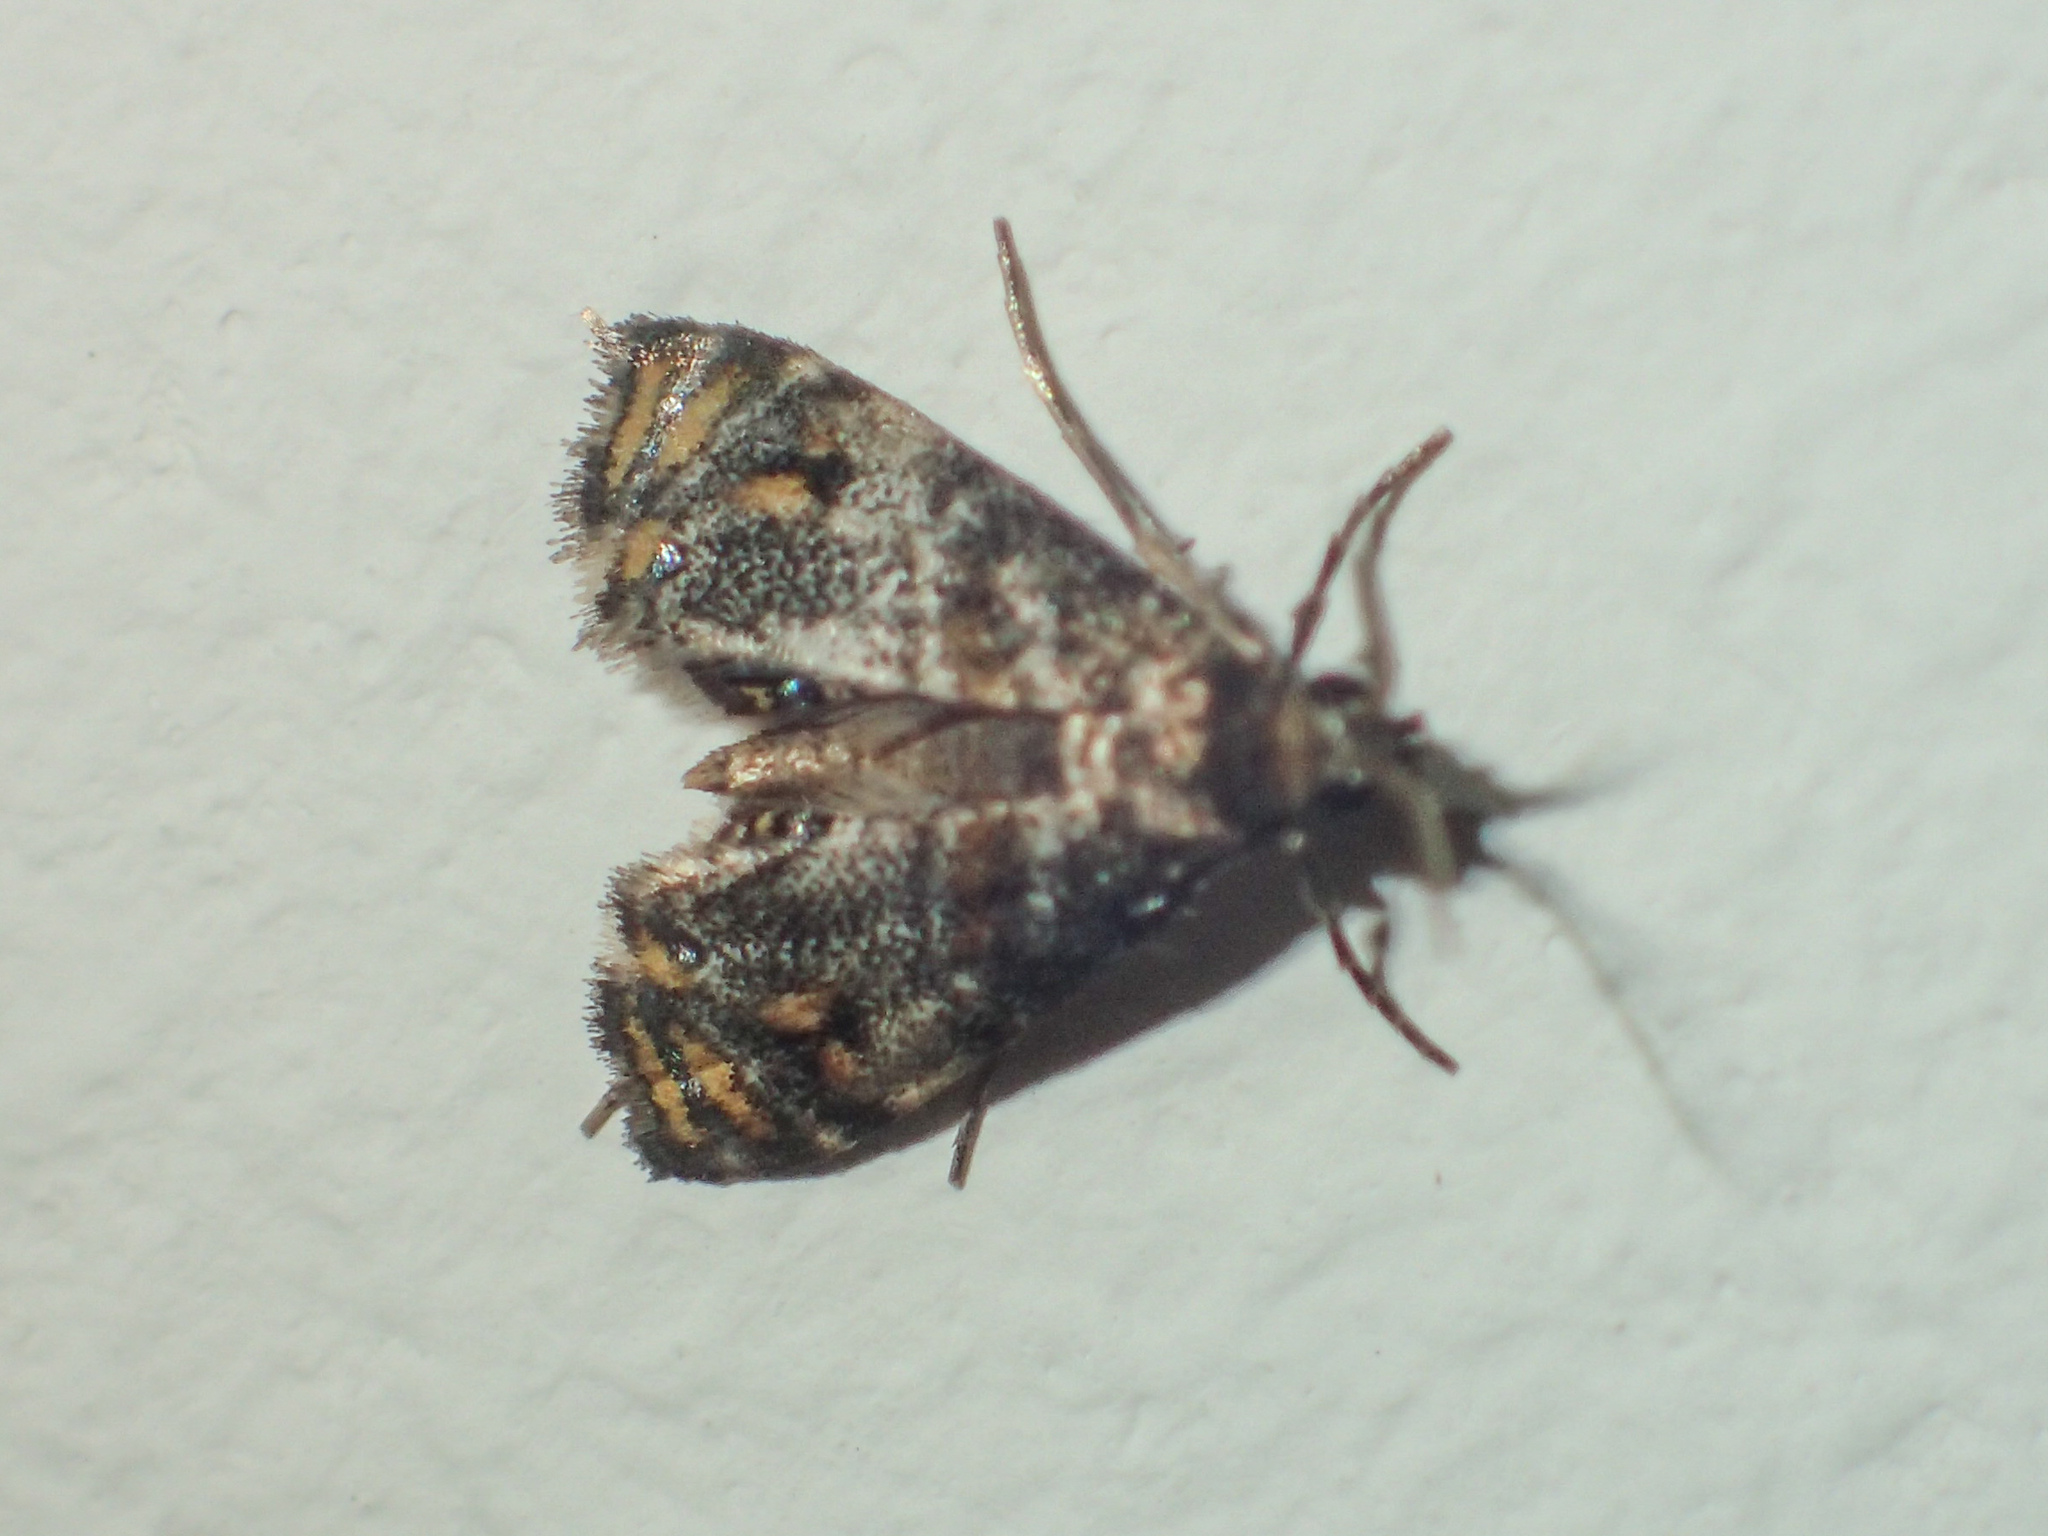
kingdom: Animalia
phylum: Arthropoda
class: Insecta
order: Lepidoptera
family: Crambidae
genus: Paracataclysta
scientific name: Paracataclysta fuscalis
